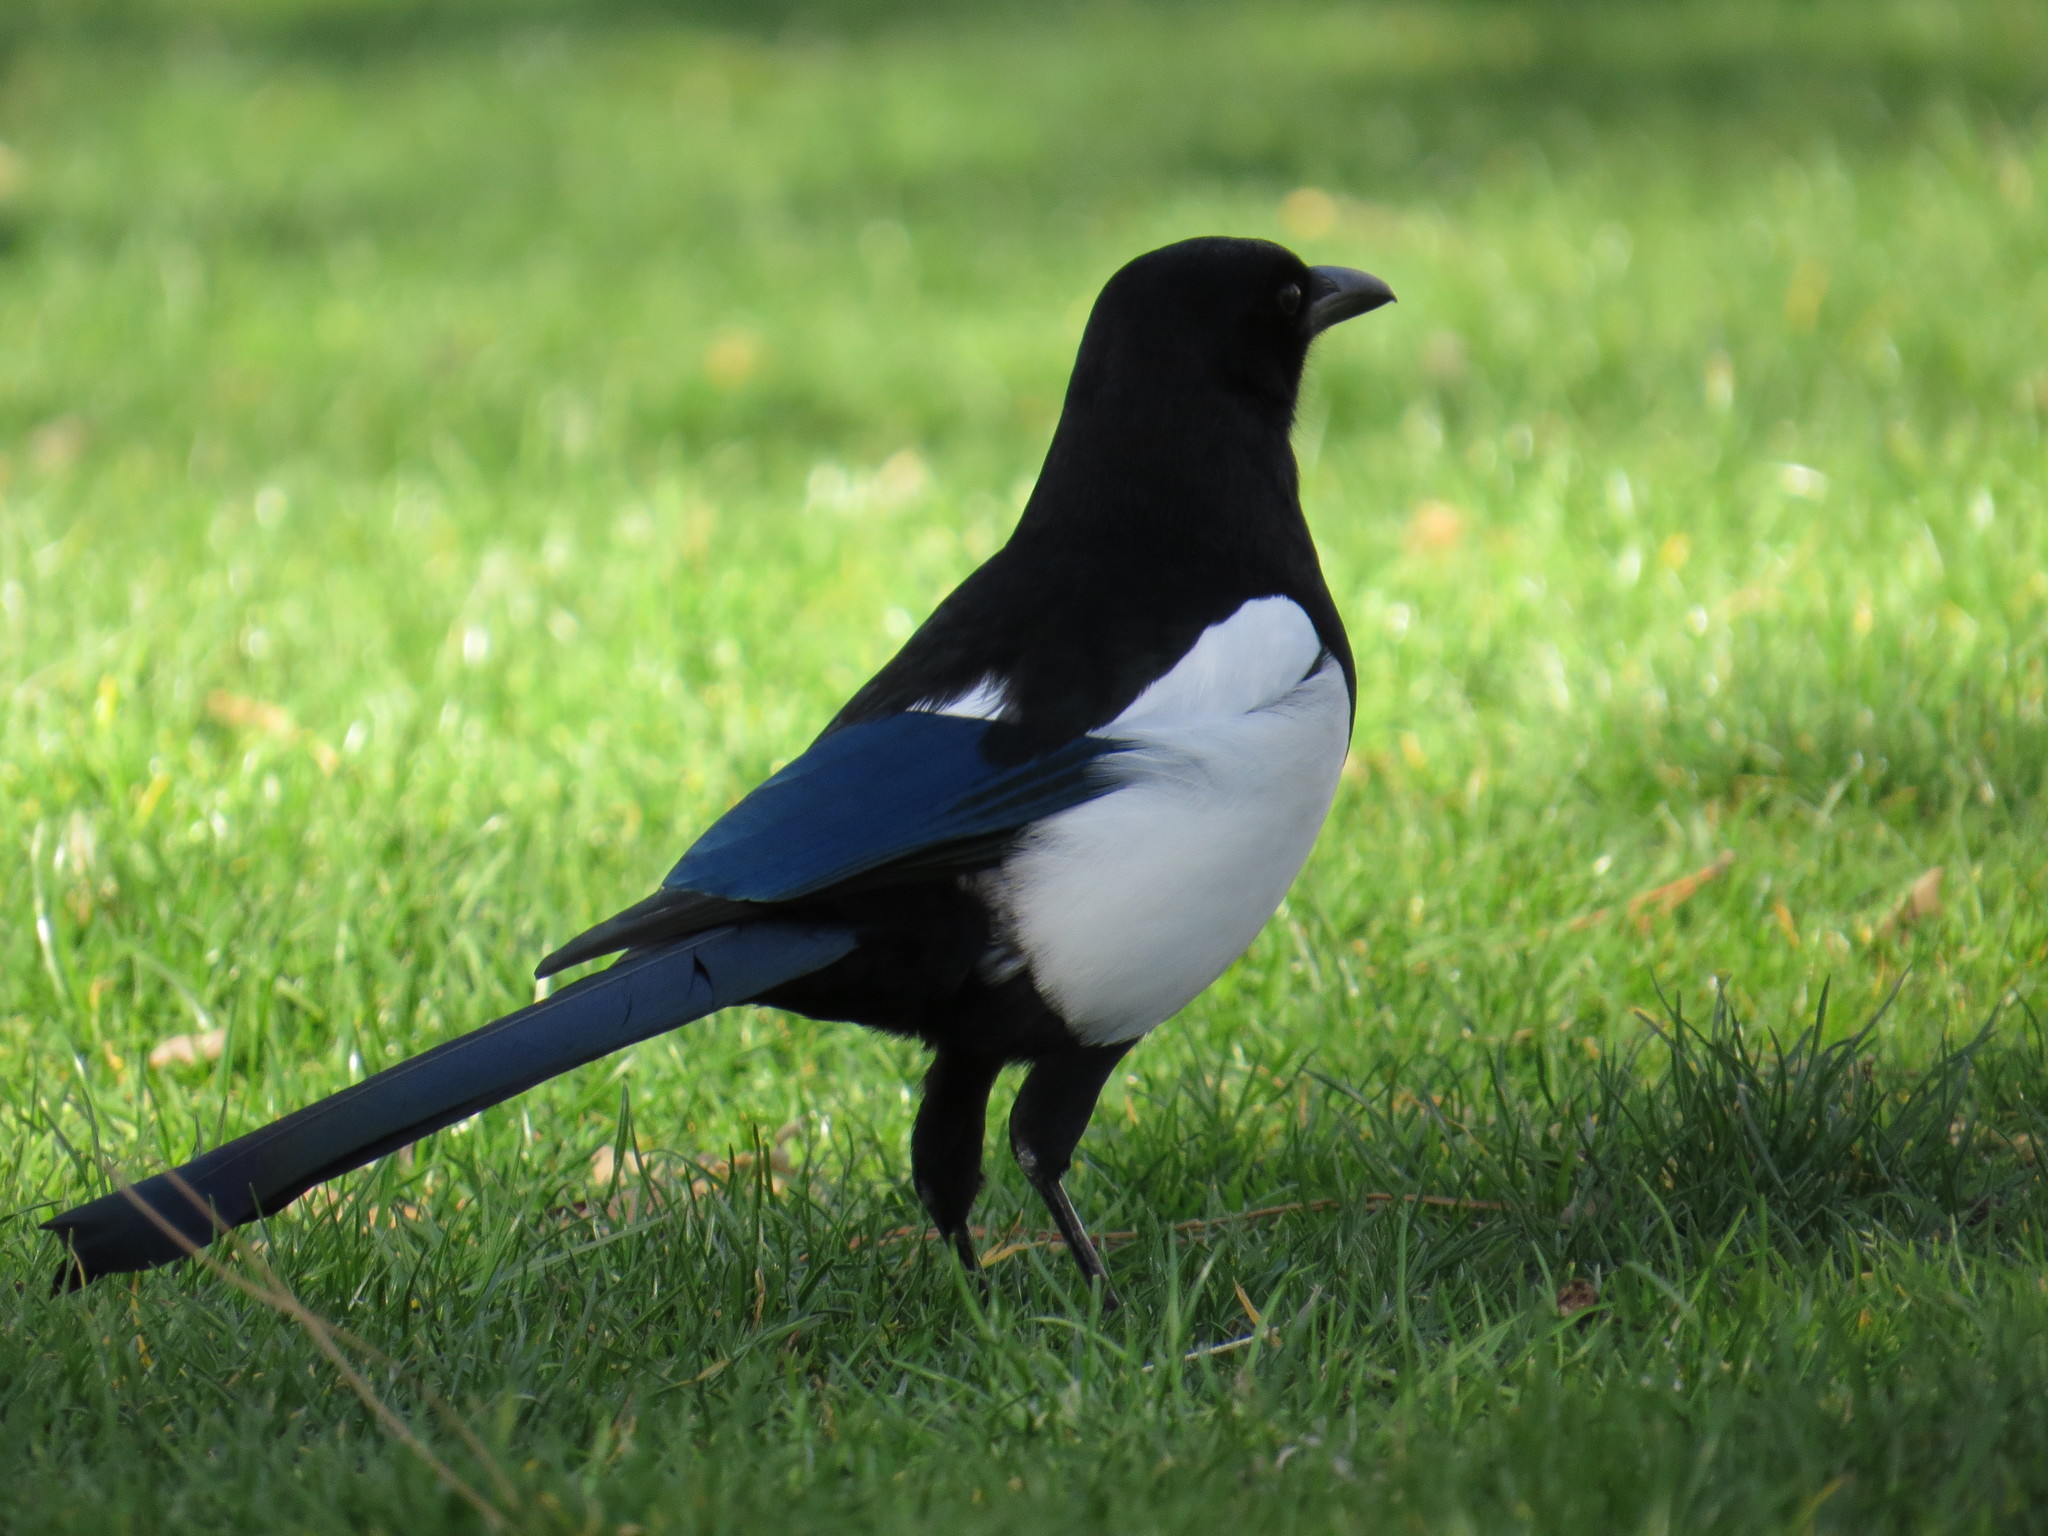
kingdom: Animalia
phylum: Chordata
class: Aves
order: Passeriformes
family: Corvidae
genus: Pica
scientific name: Pica pica
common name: Eurasian magpie
